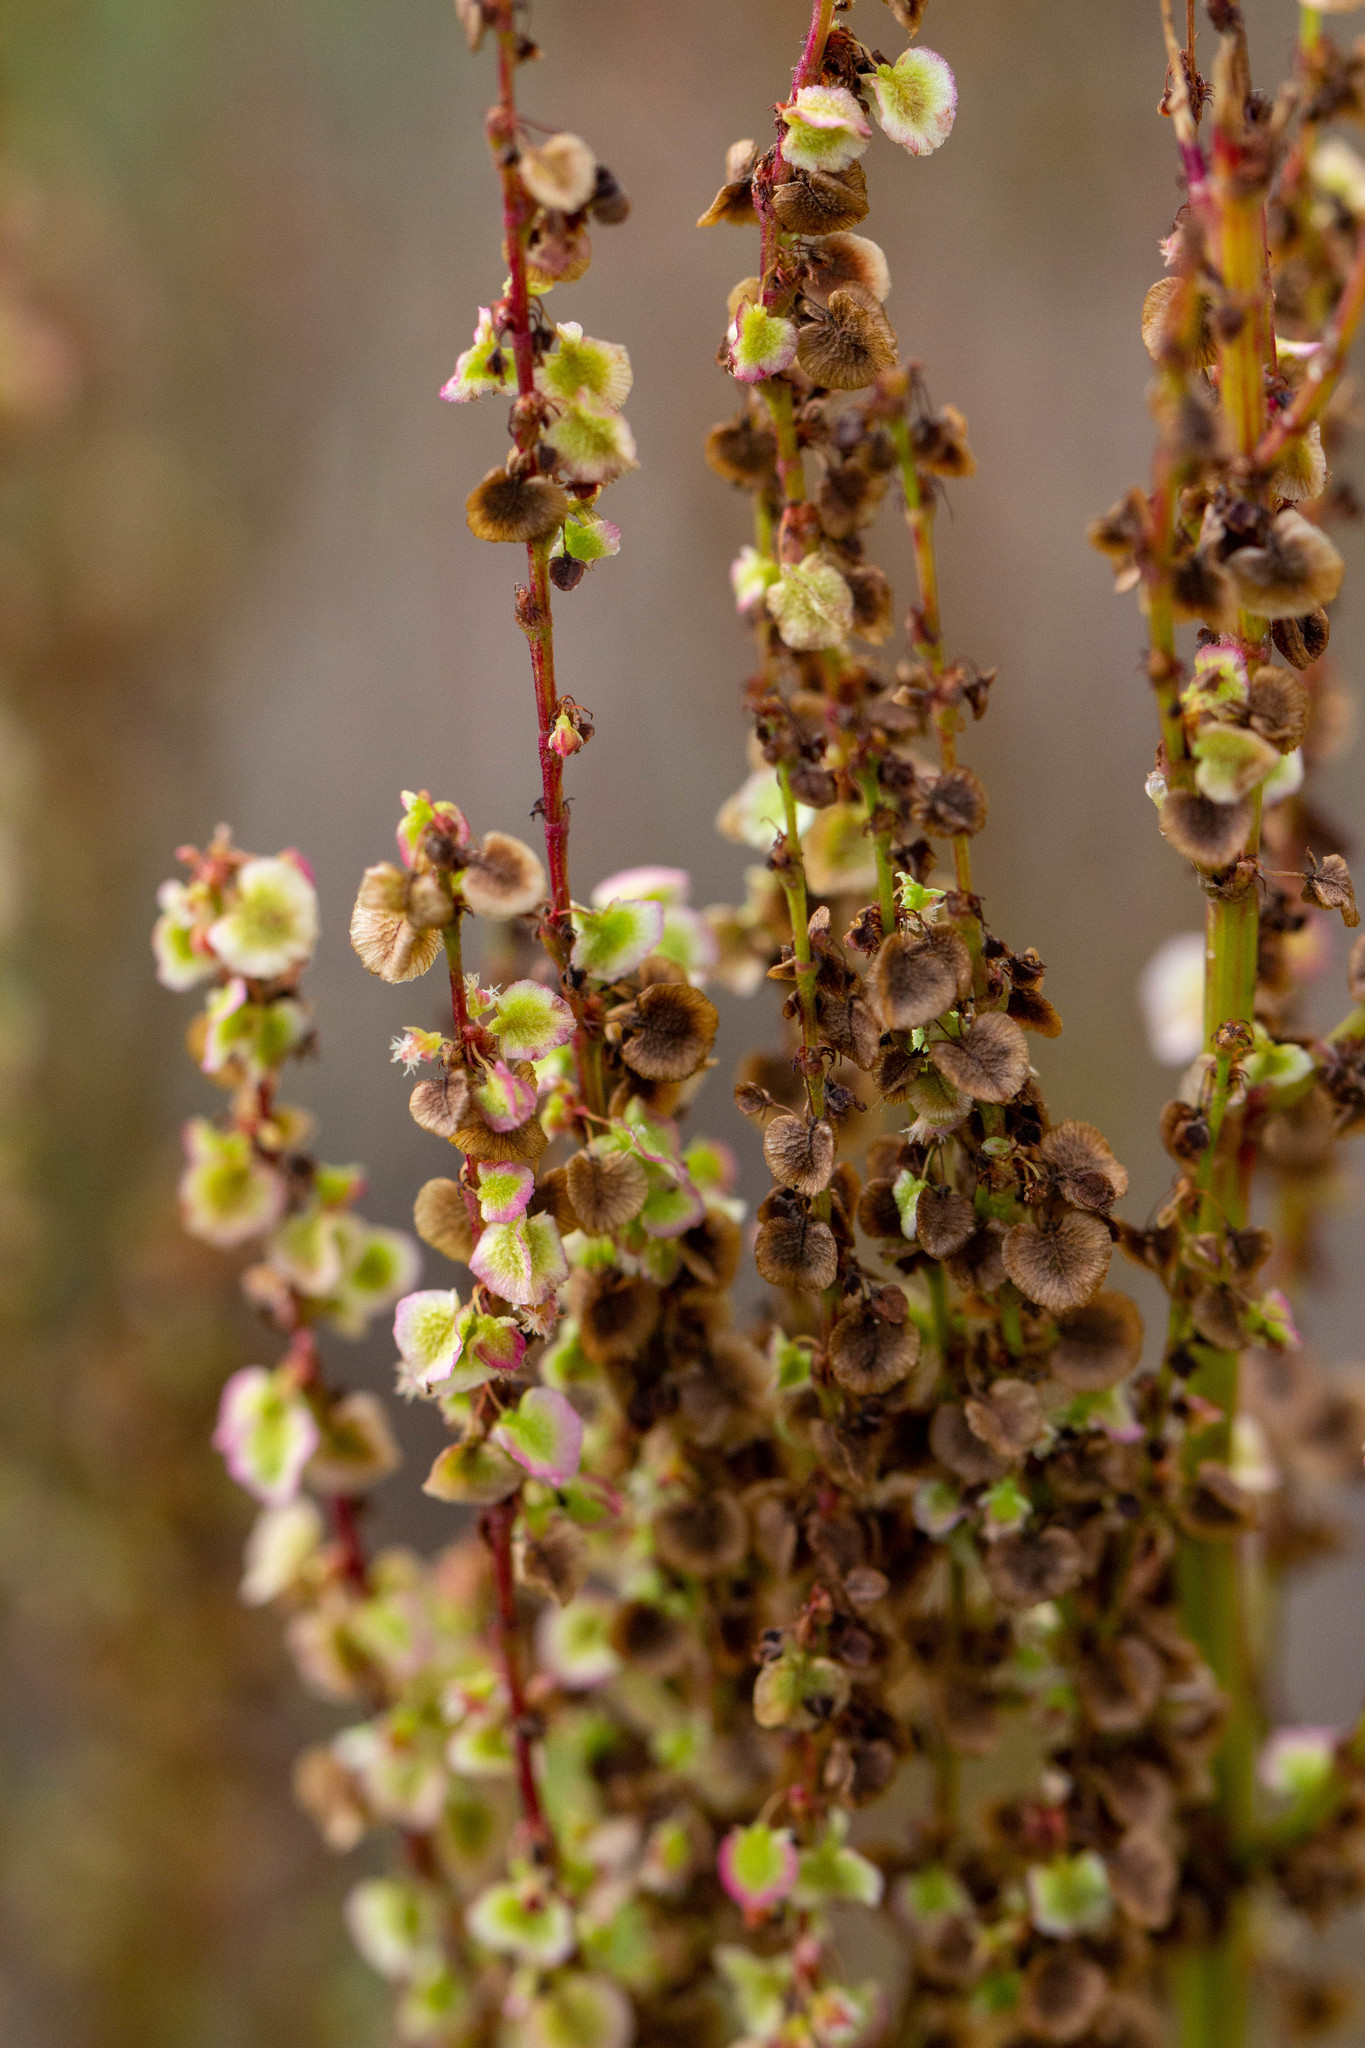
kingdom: Plantae
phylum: Tracheophyta
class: Magnoliopsida
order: Caryophyllales
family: Polygonaceae
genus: Rumex
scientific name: Rumex hastatulus
